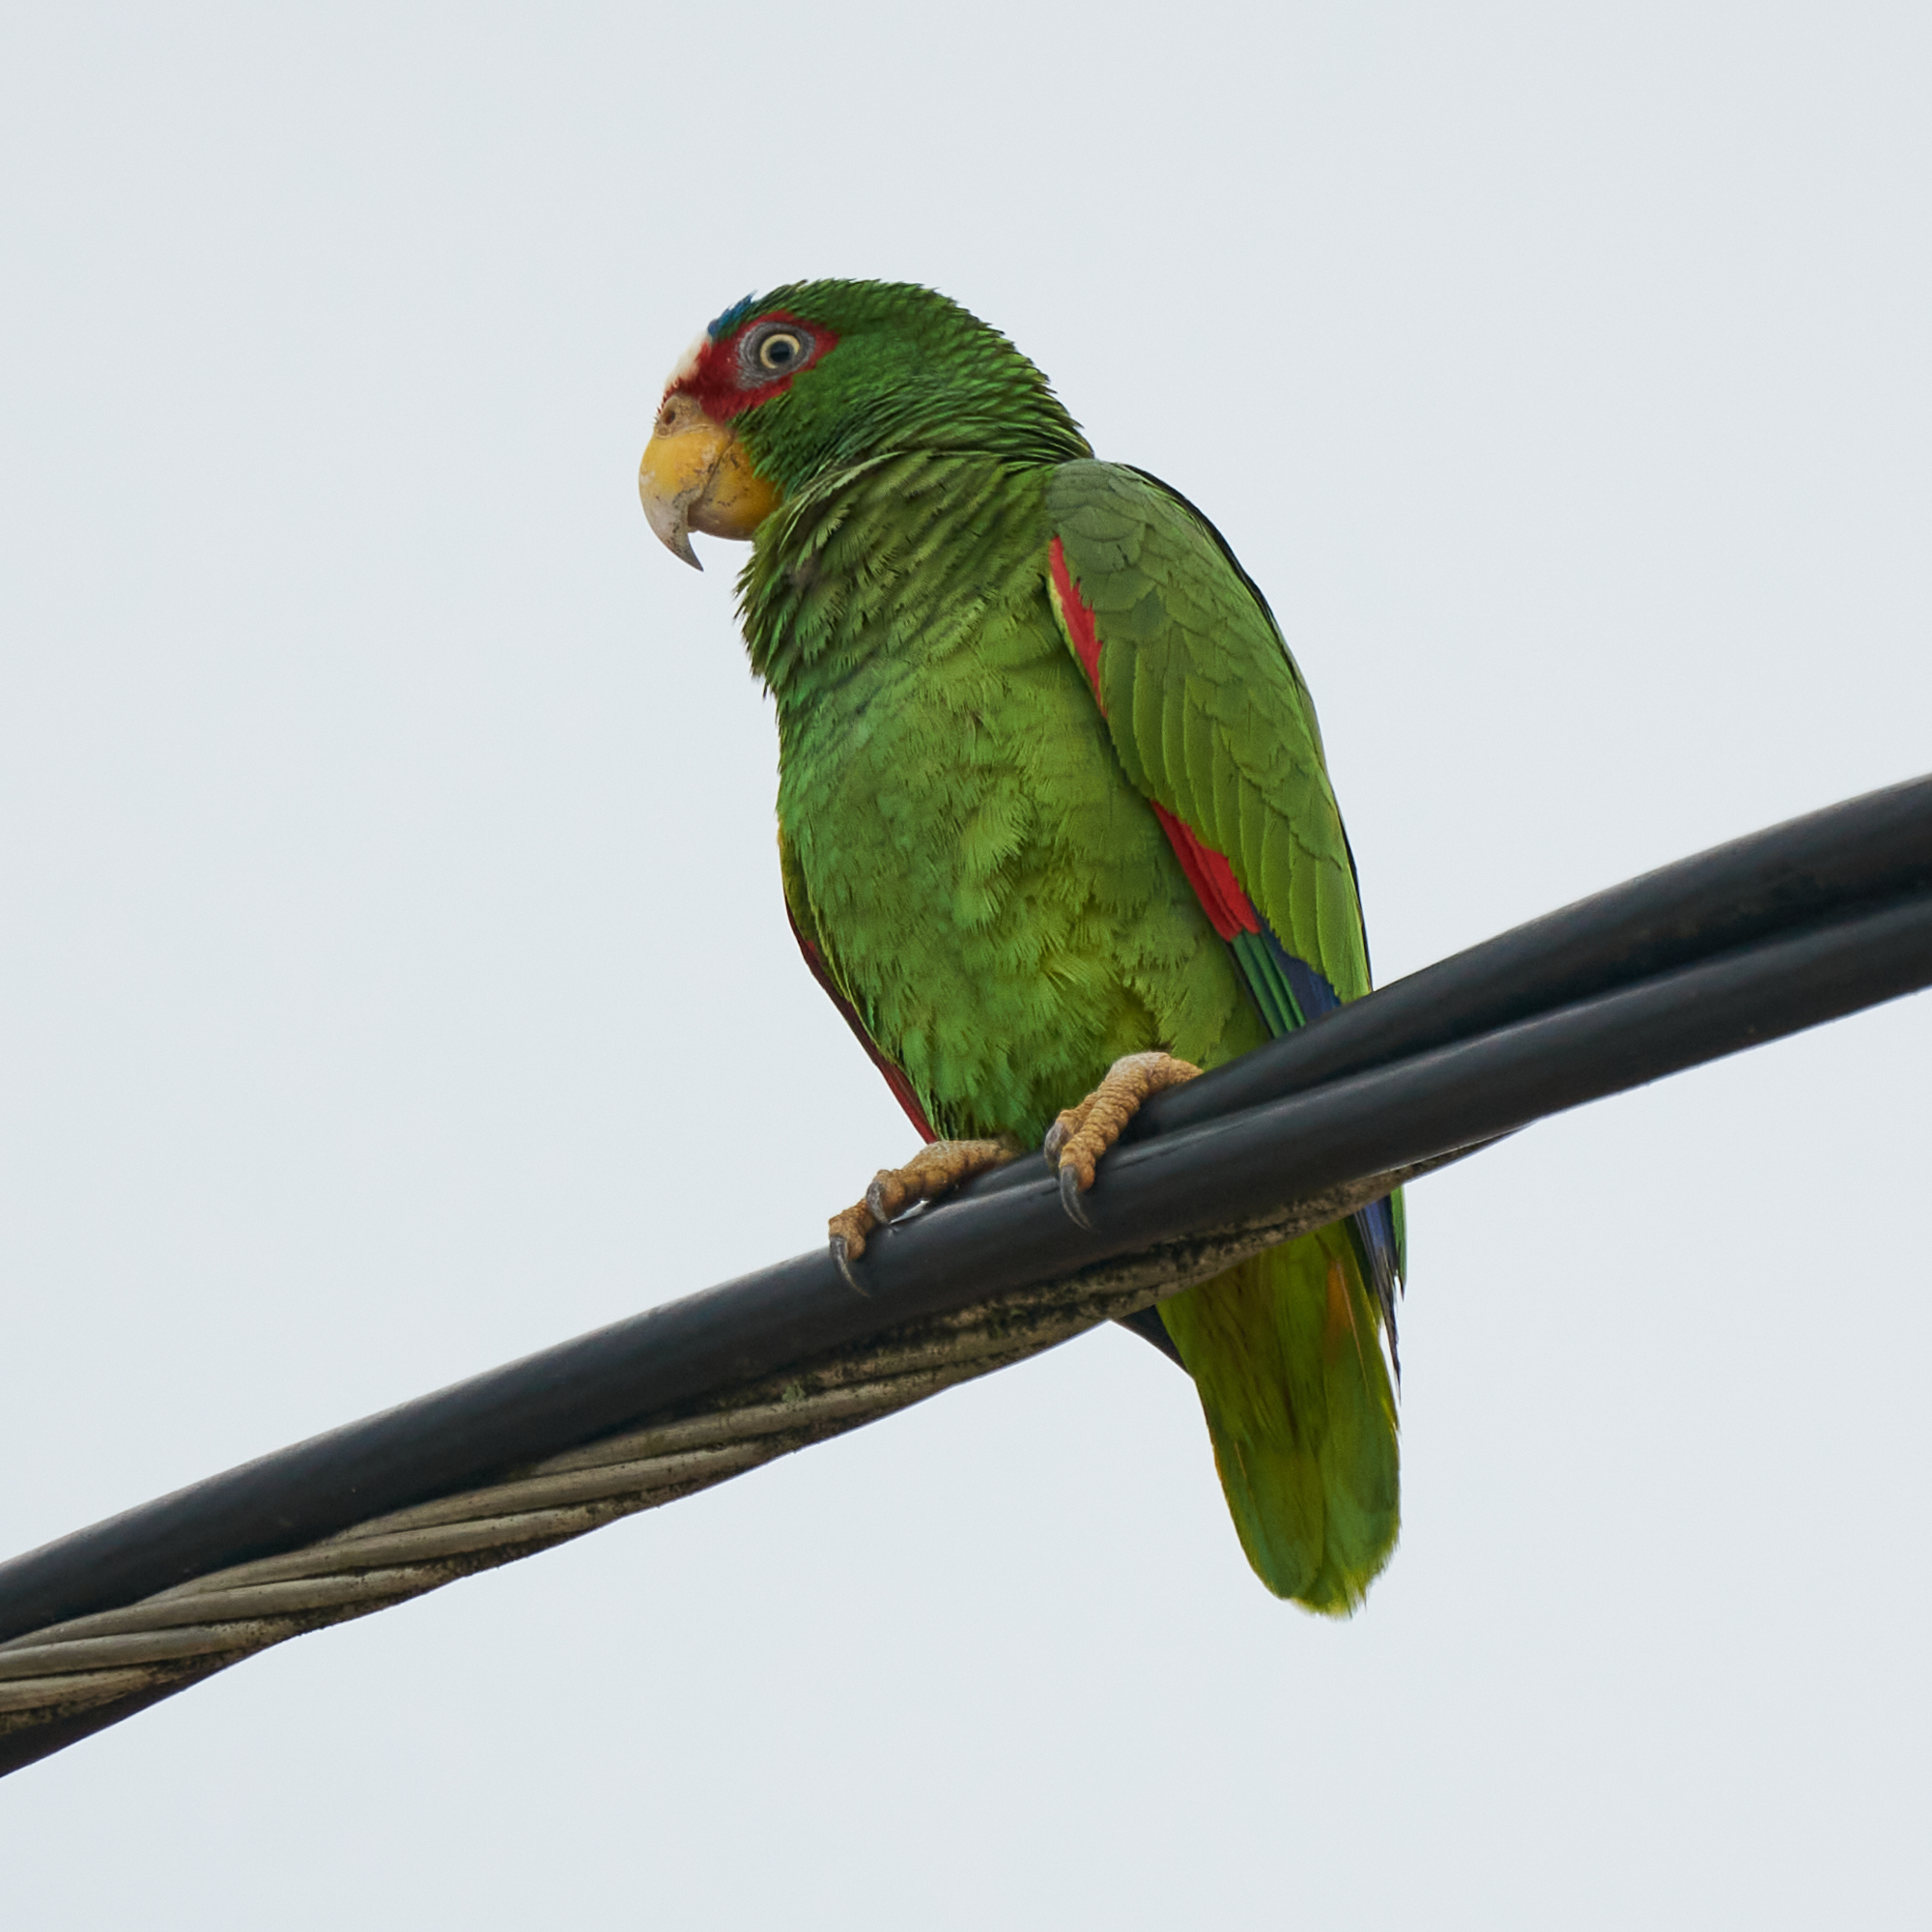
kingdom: Animalia
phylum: Chordata
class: Aves
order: Psittaciformes
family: Psittacidae
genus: Amazona
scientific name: Amazona albifrons
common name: White-fronted amazon
